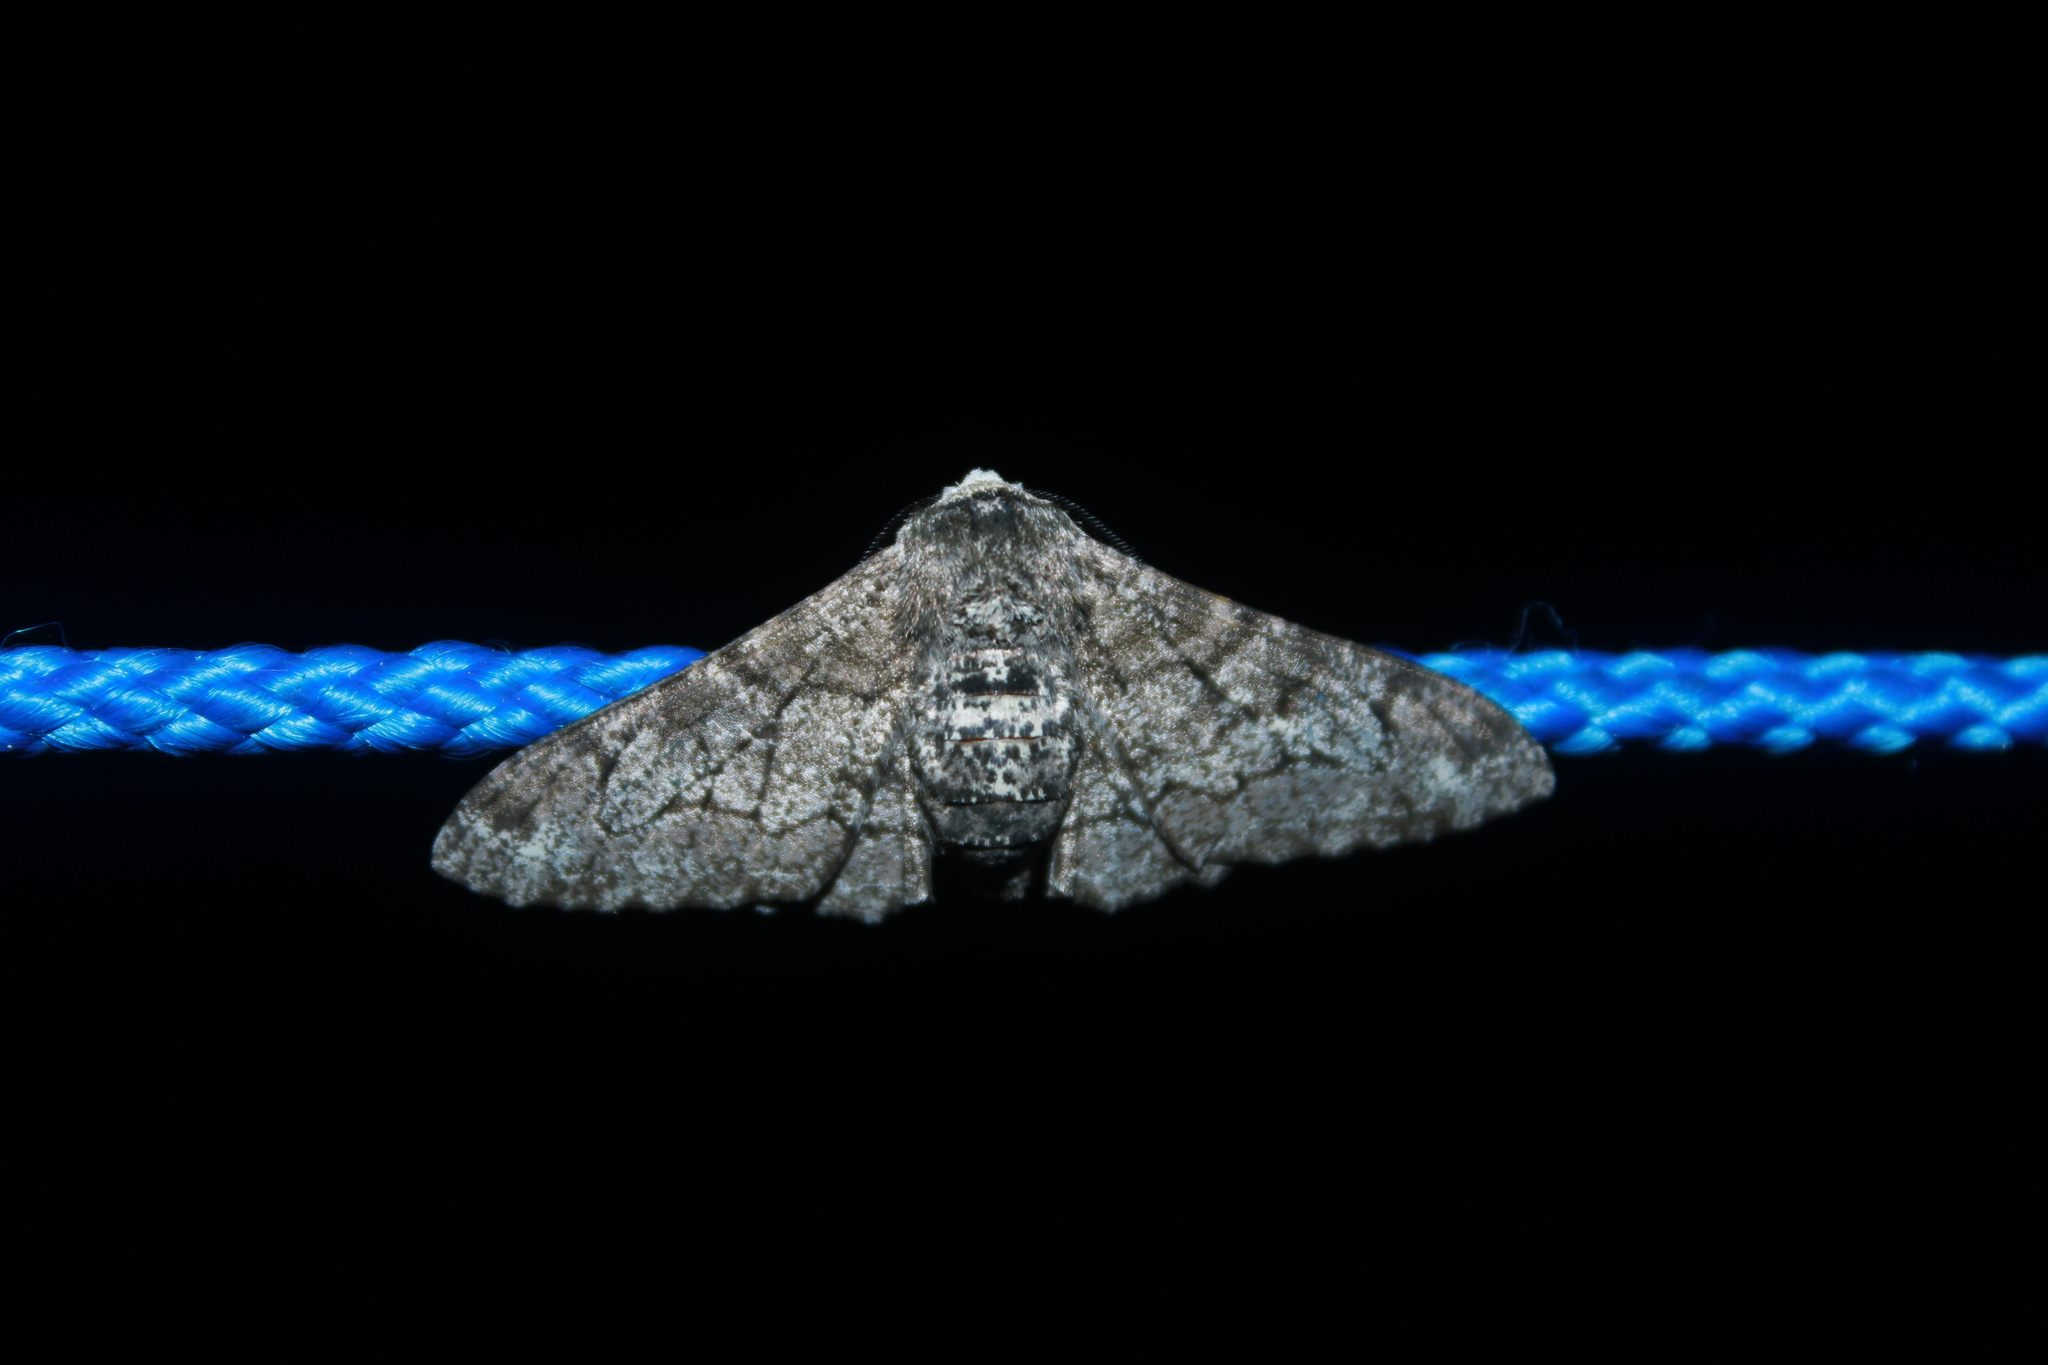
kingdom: Animalia
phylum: Arthropoda
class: Insecta
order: Lepidoptera
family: Geometridae
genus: Biston
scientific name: Biston betularia
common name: Peppered moth
